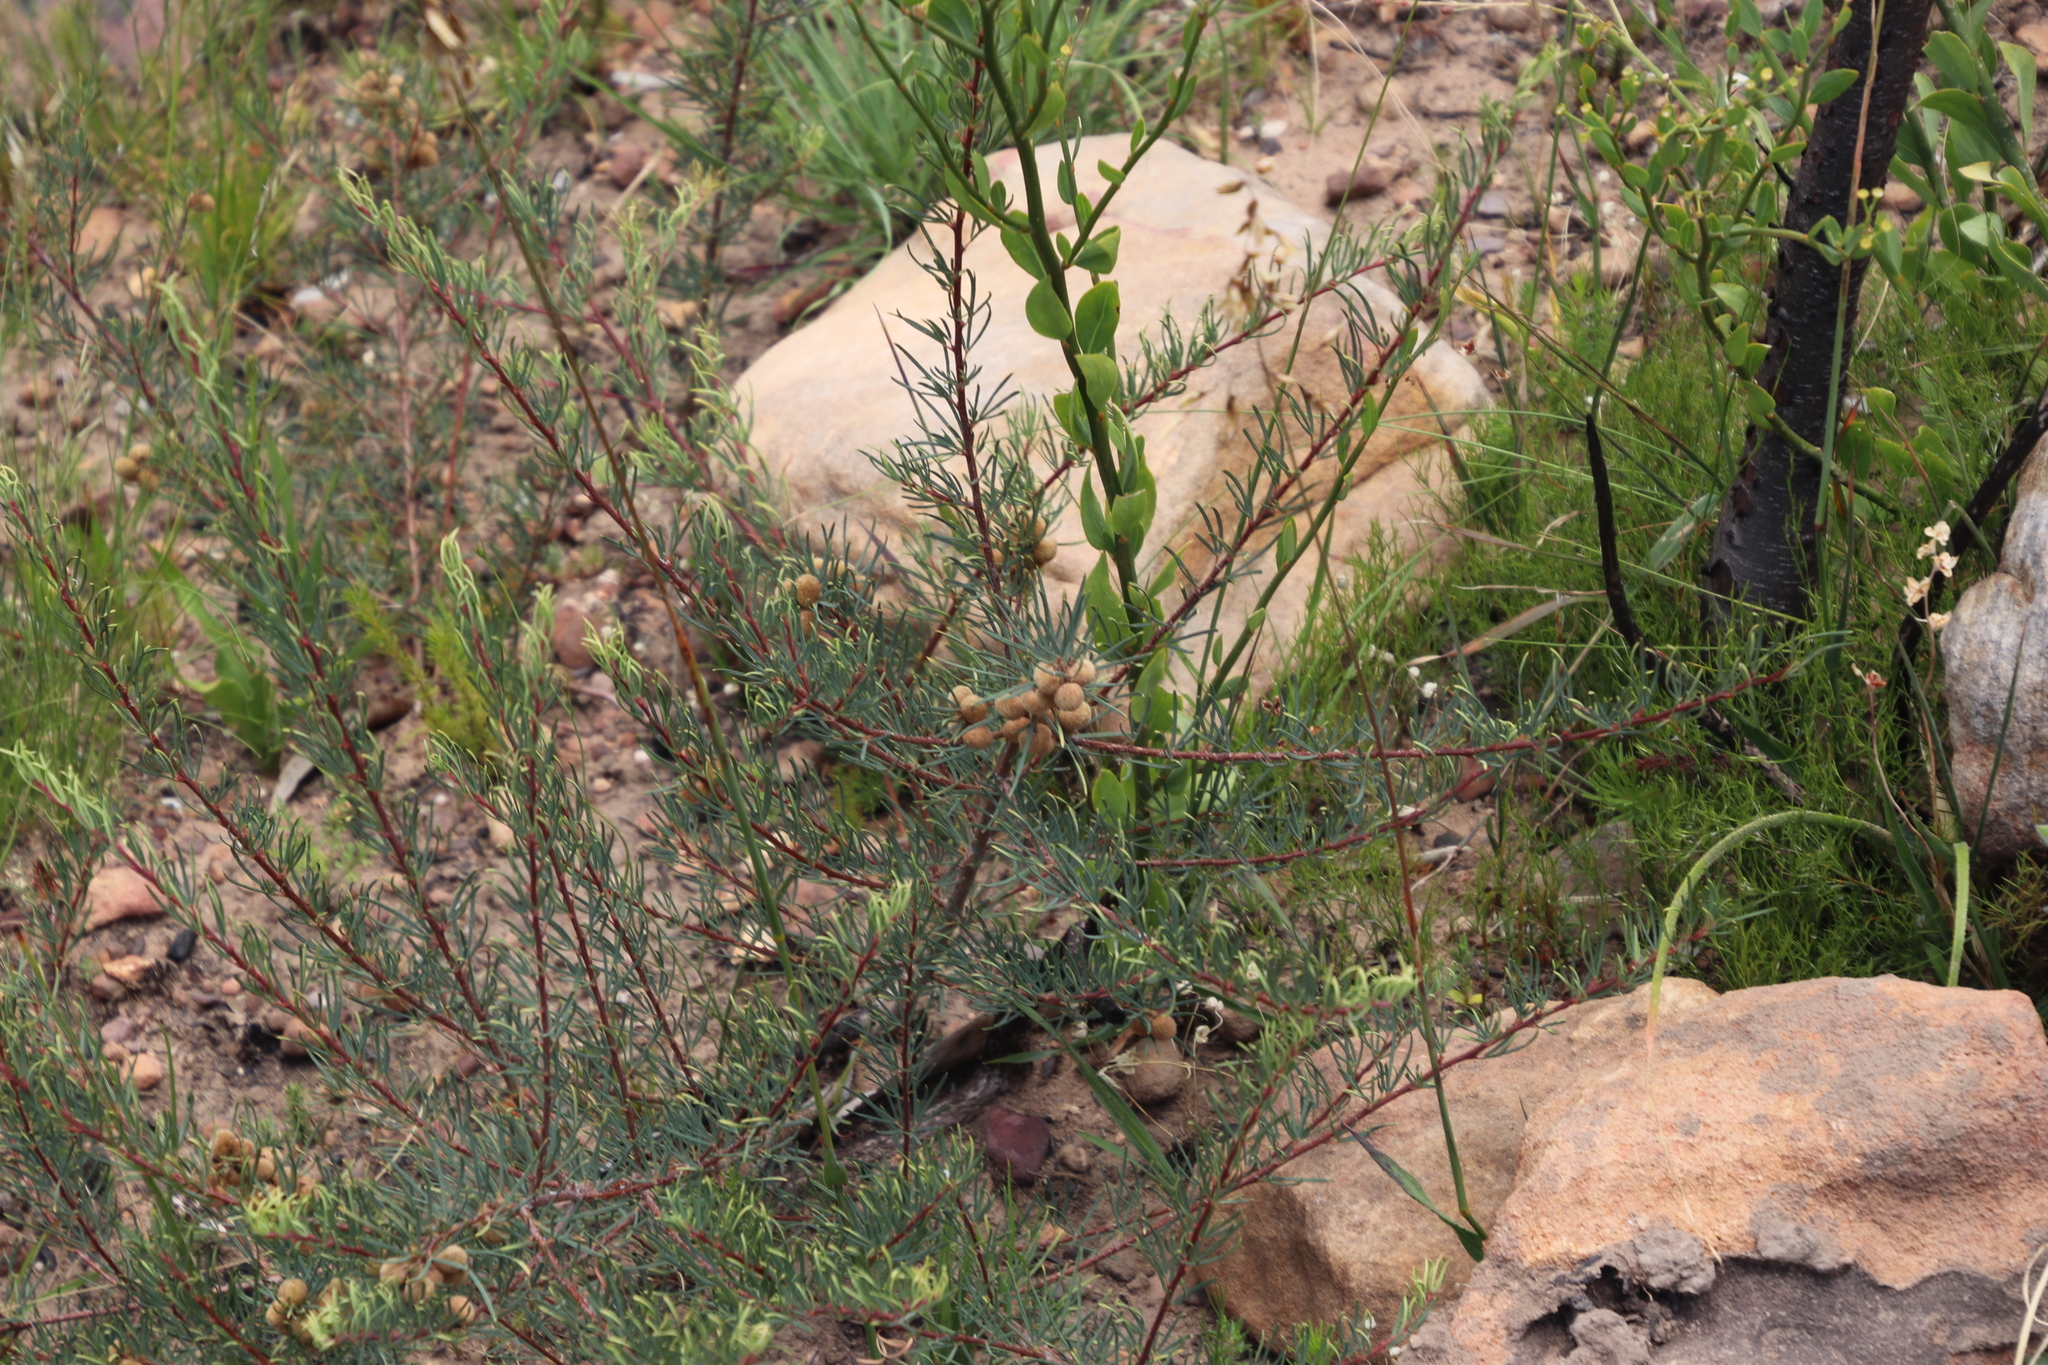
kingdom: Plantae
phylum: Tracheophyta
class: Magnoliopsida
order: Sapindales
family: Anacardiaceae
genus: Searsia
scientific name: Searsia rosmarinifolia
